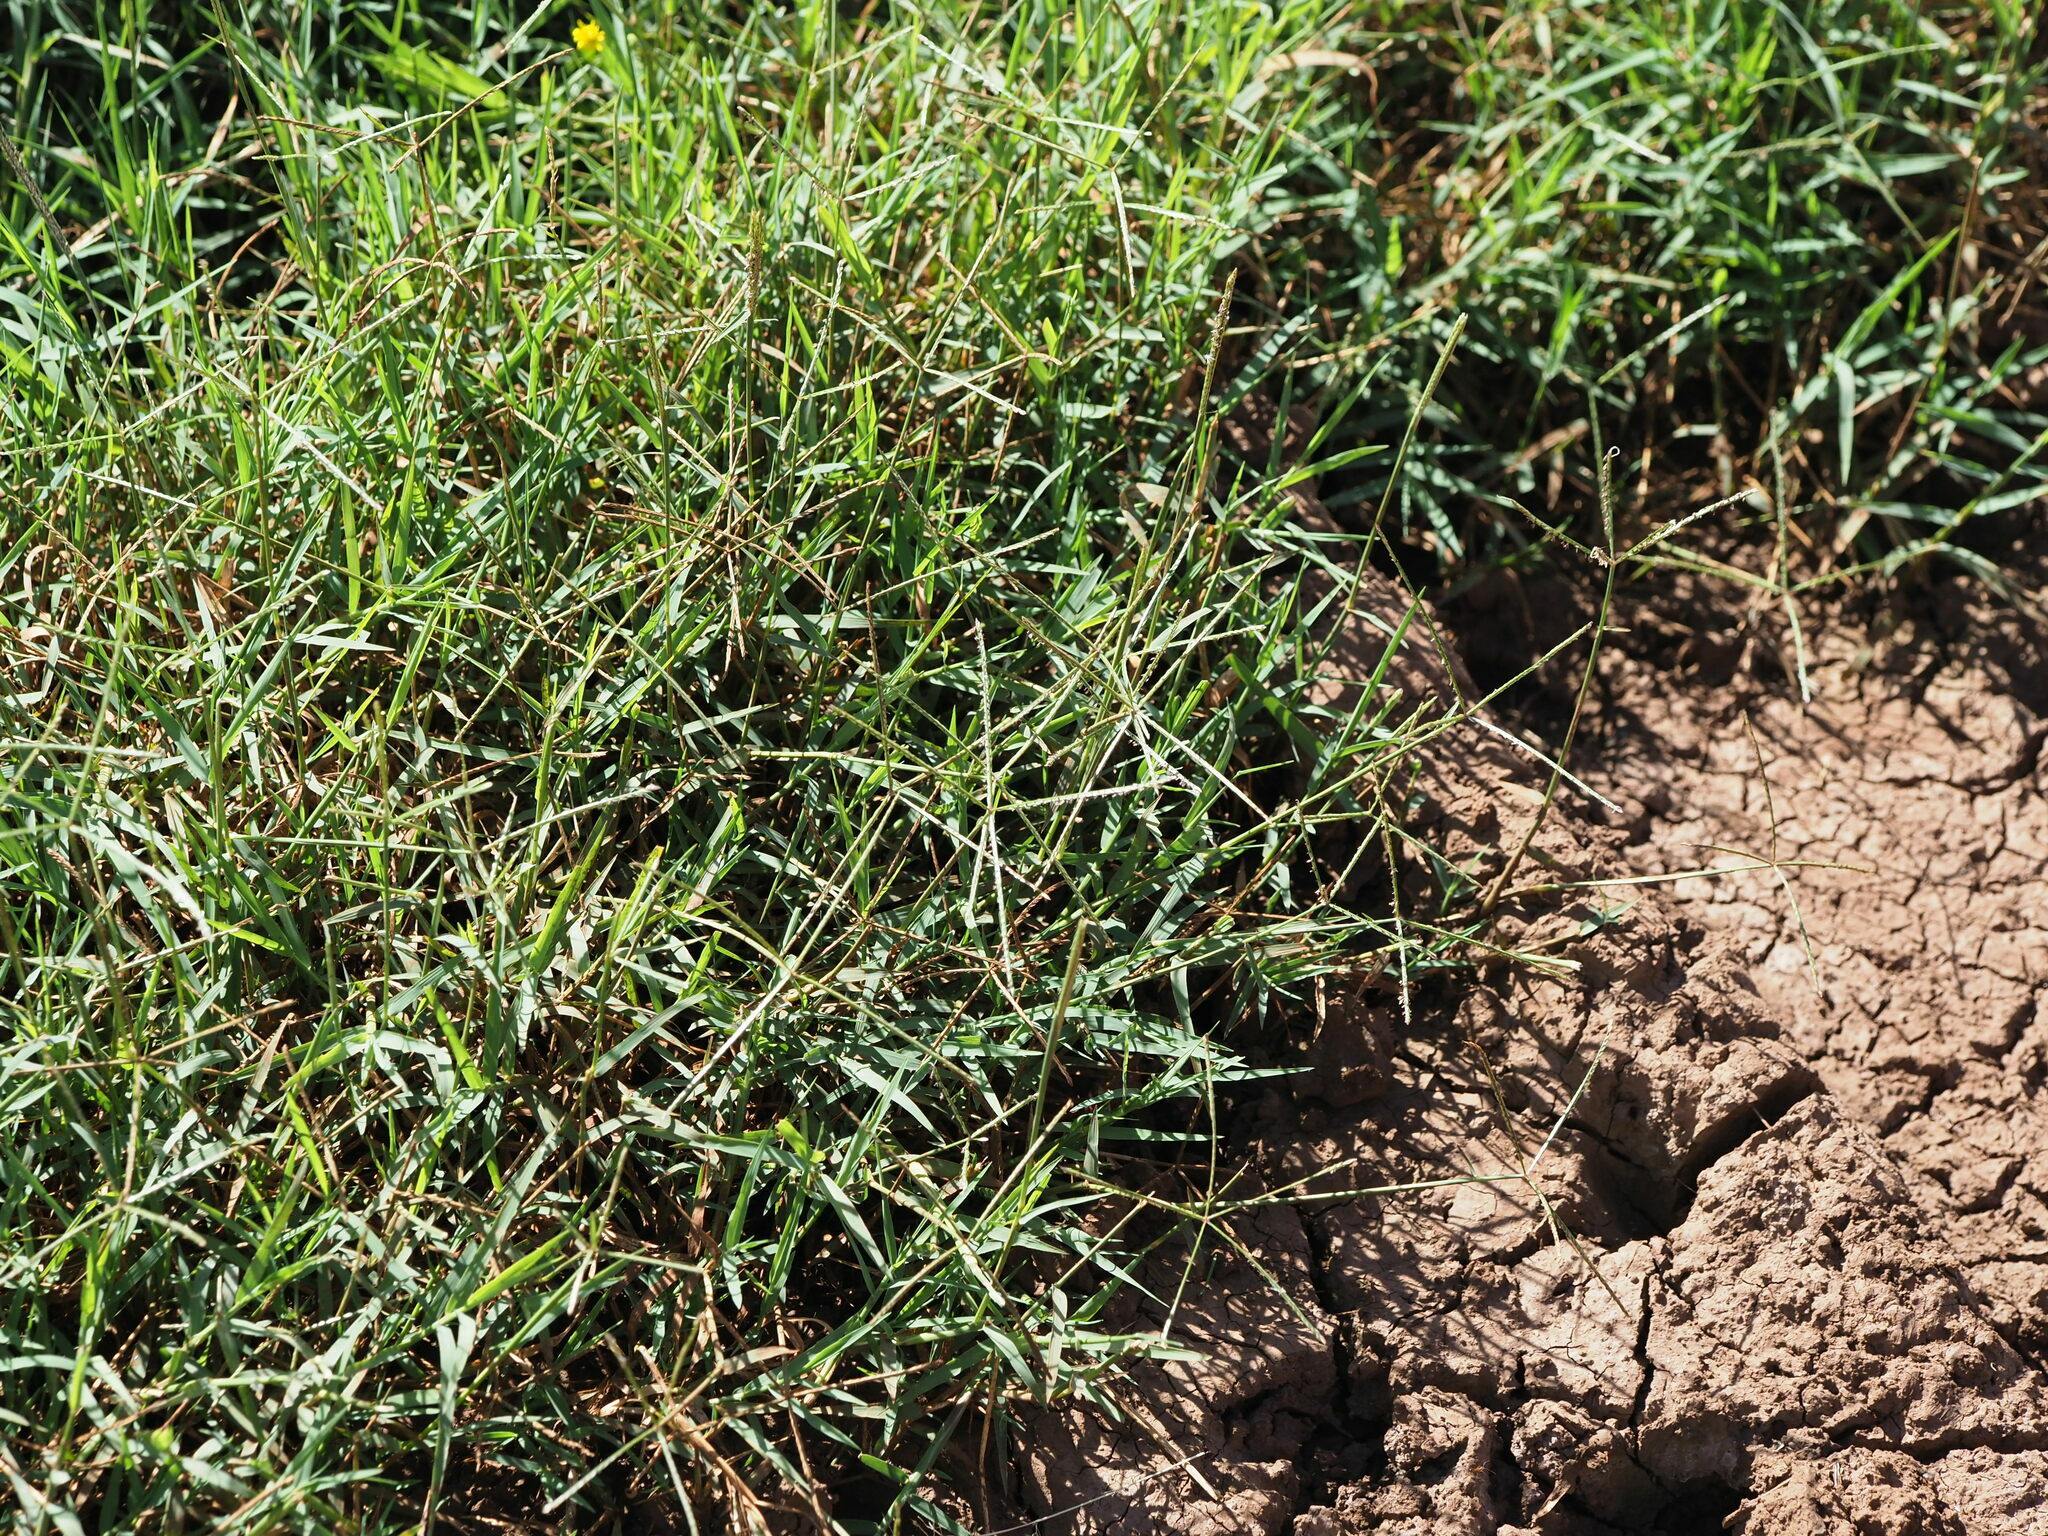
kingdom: Plantae
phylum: Tracheophyta
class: Liliopsida
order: Poales
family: Poaceae
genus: Cynodon
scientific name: Cynodon dactylon
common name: Bermuda grass
